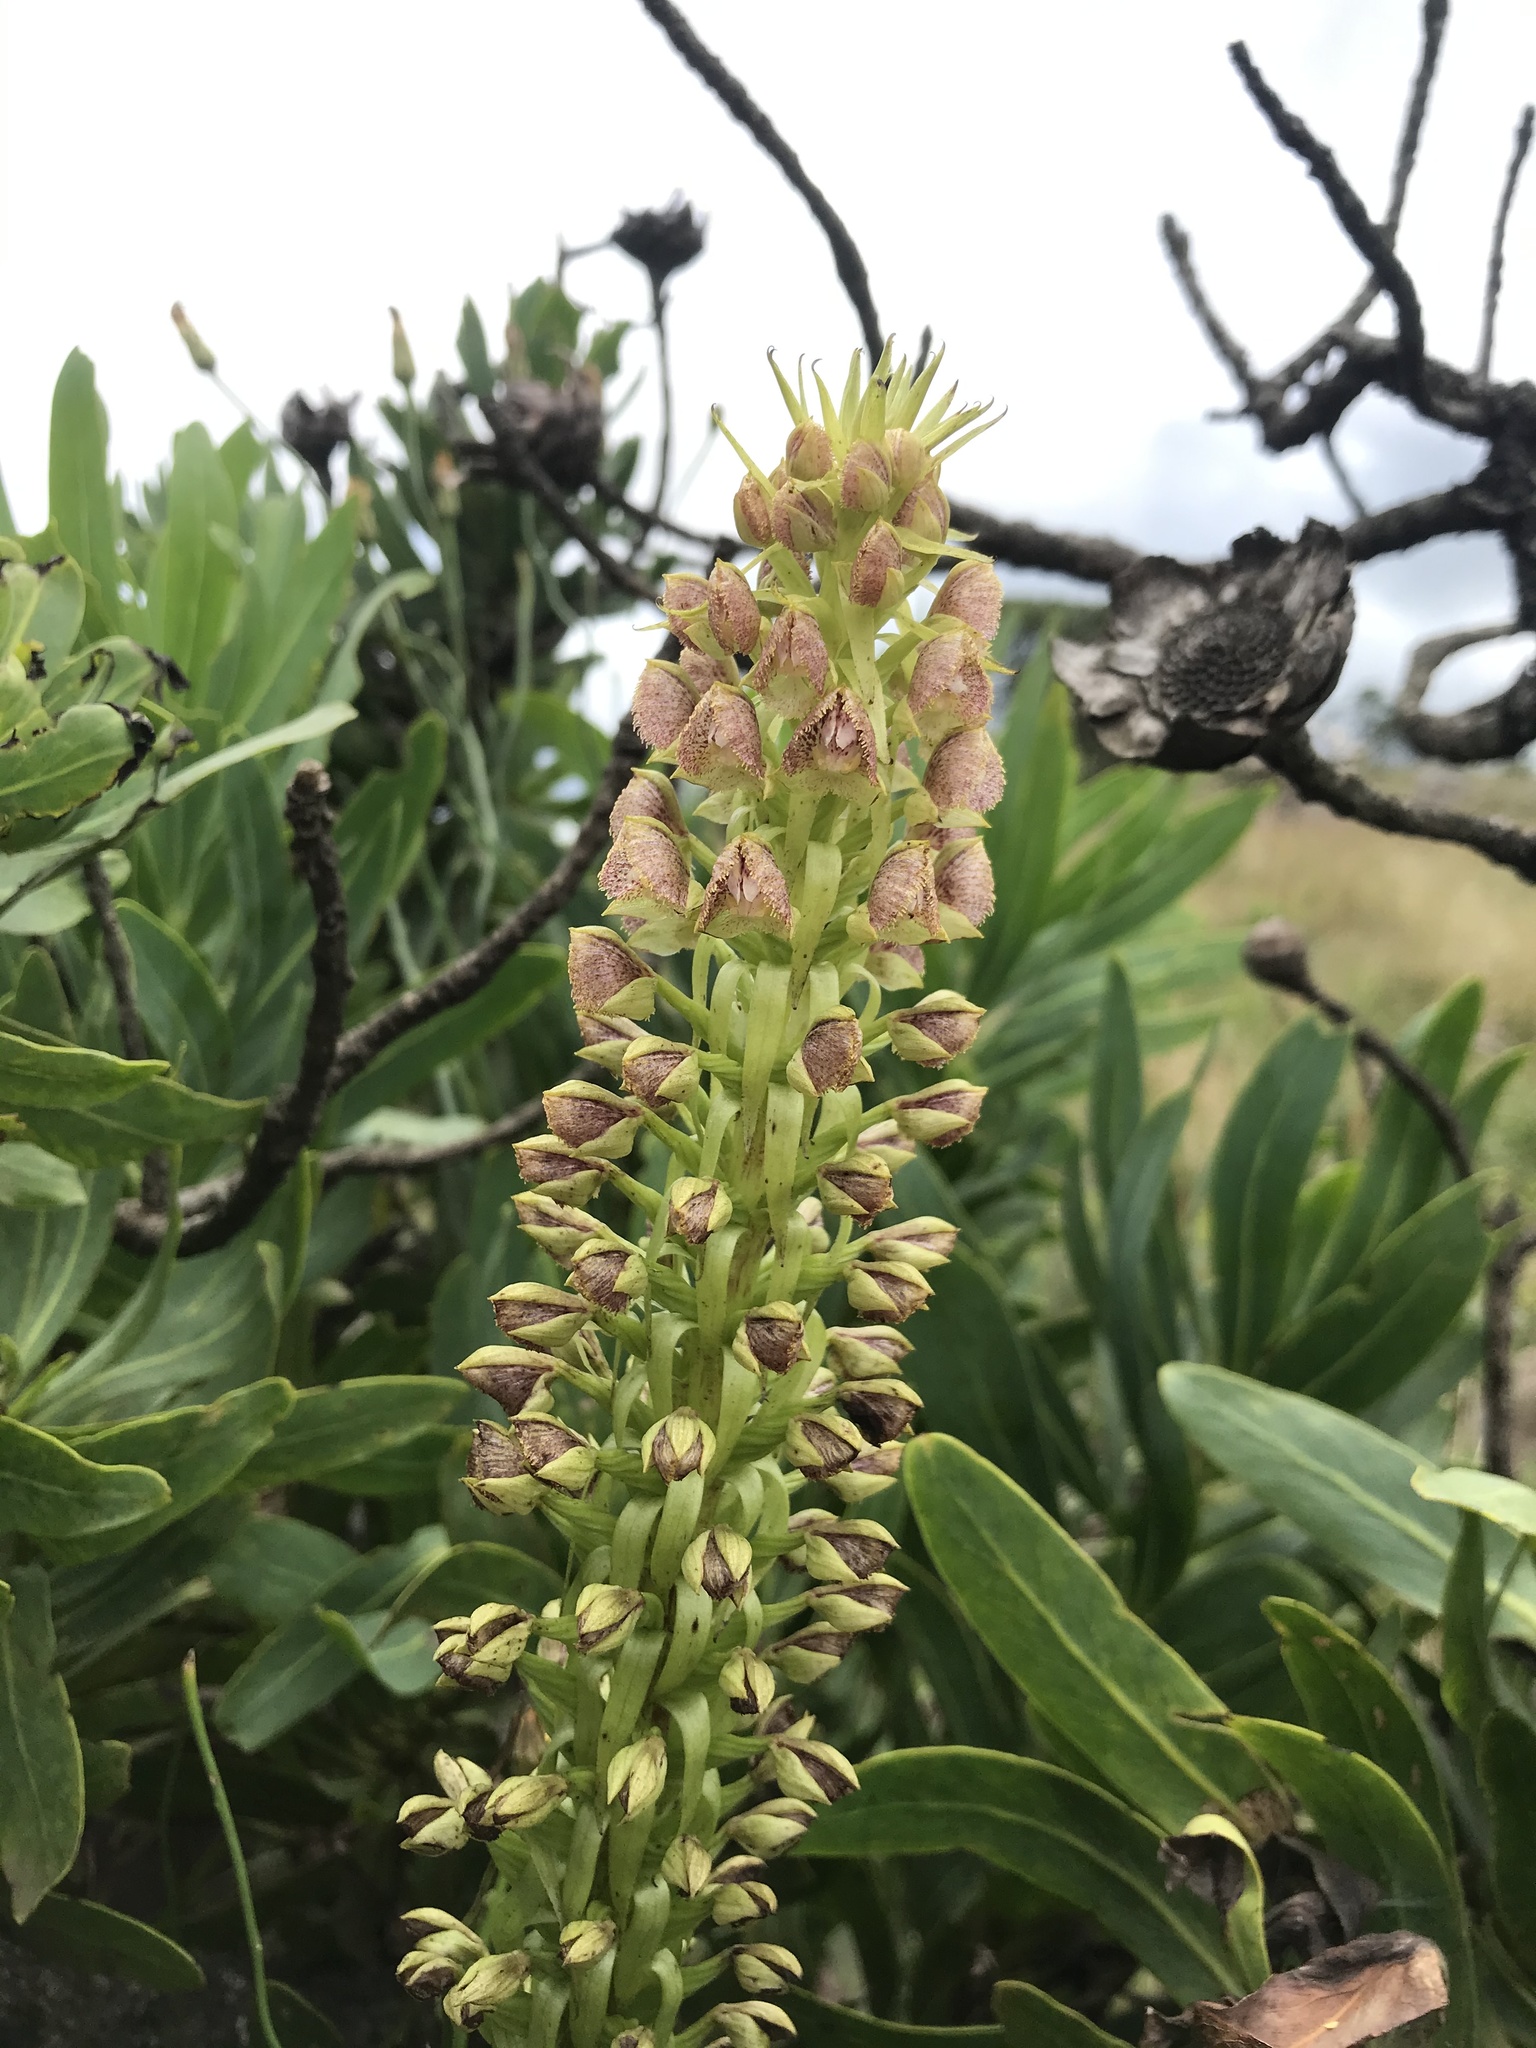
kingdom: Plantae
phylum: Tracheophyta
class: Liliopsida
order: Asparagales
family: Orchidaceae
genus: Pterygodium
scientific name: Pterygodium magnum
